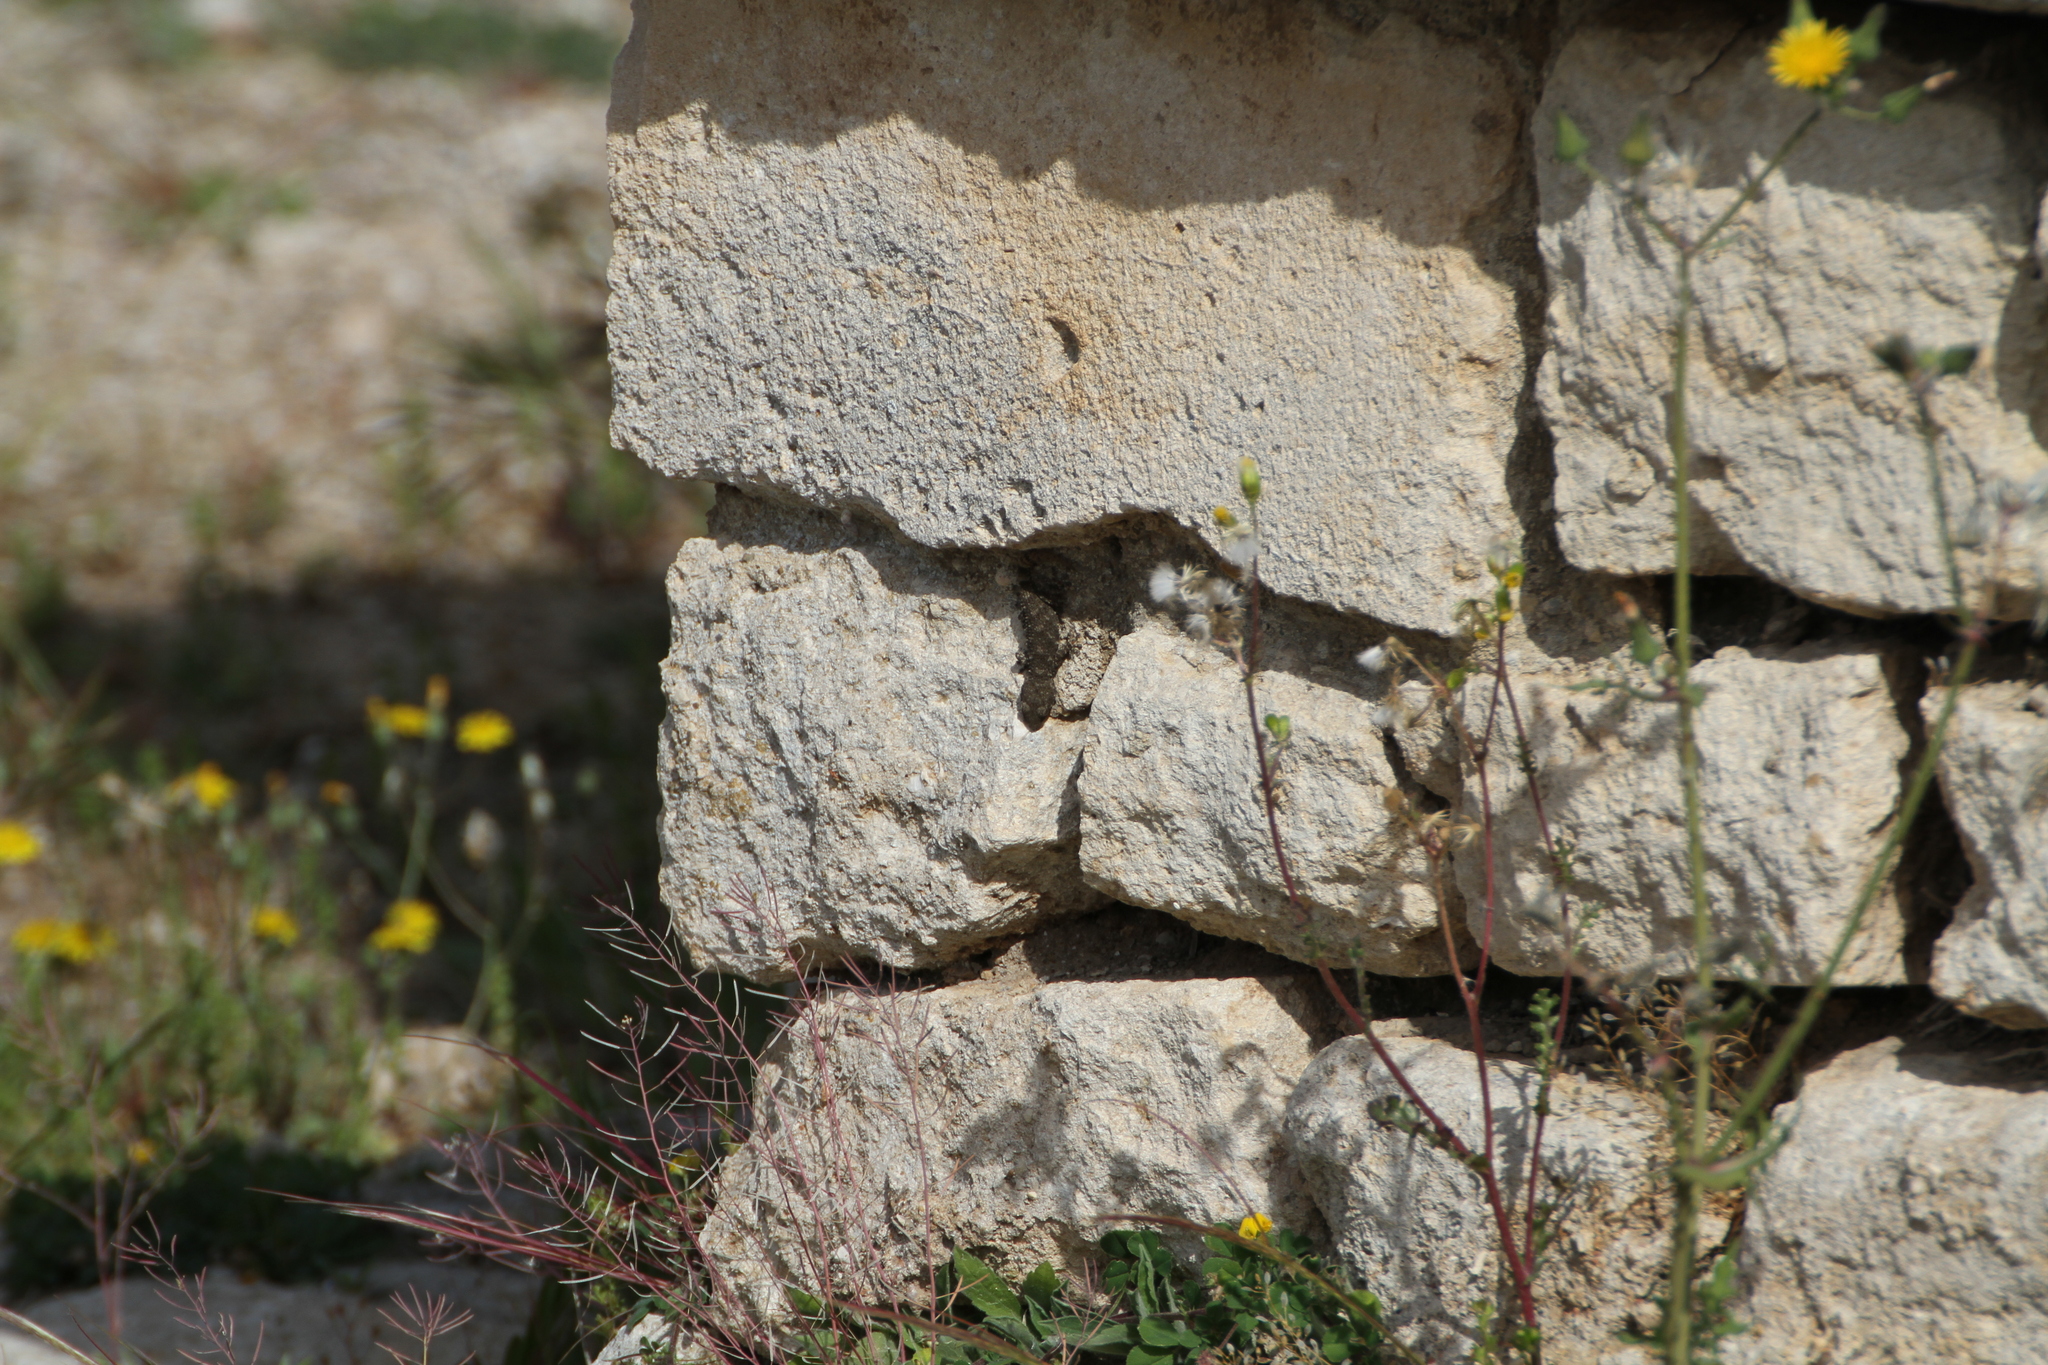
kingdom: Animalia
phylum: Chordata
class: Squamata
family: Phyllodactylidae
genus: Tarentola
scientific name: Tarentola mauritanica
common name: Moorish gecko
